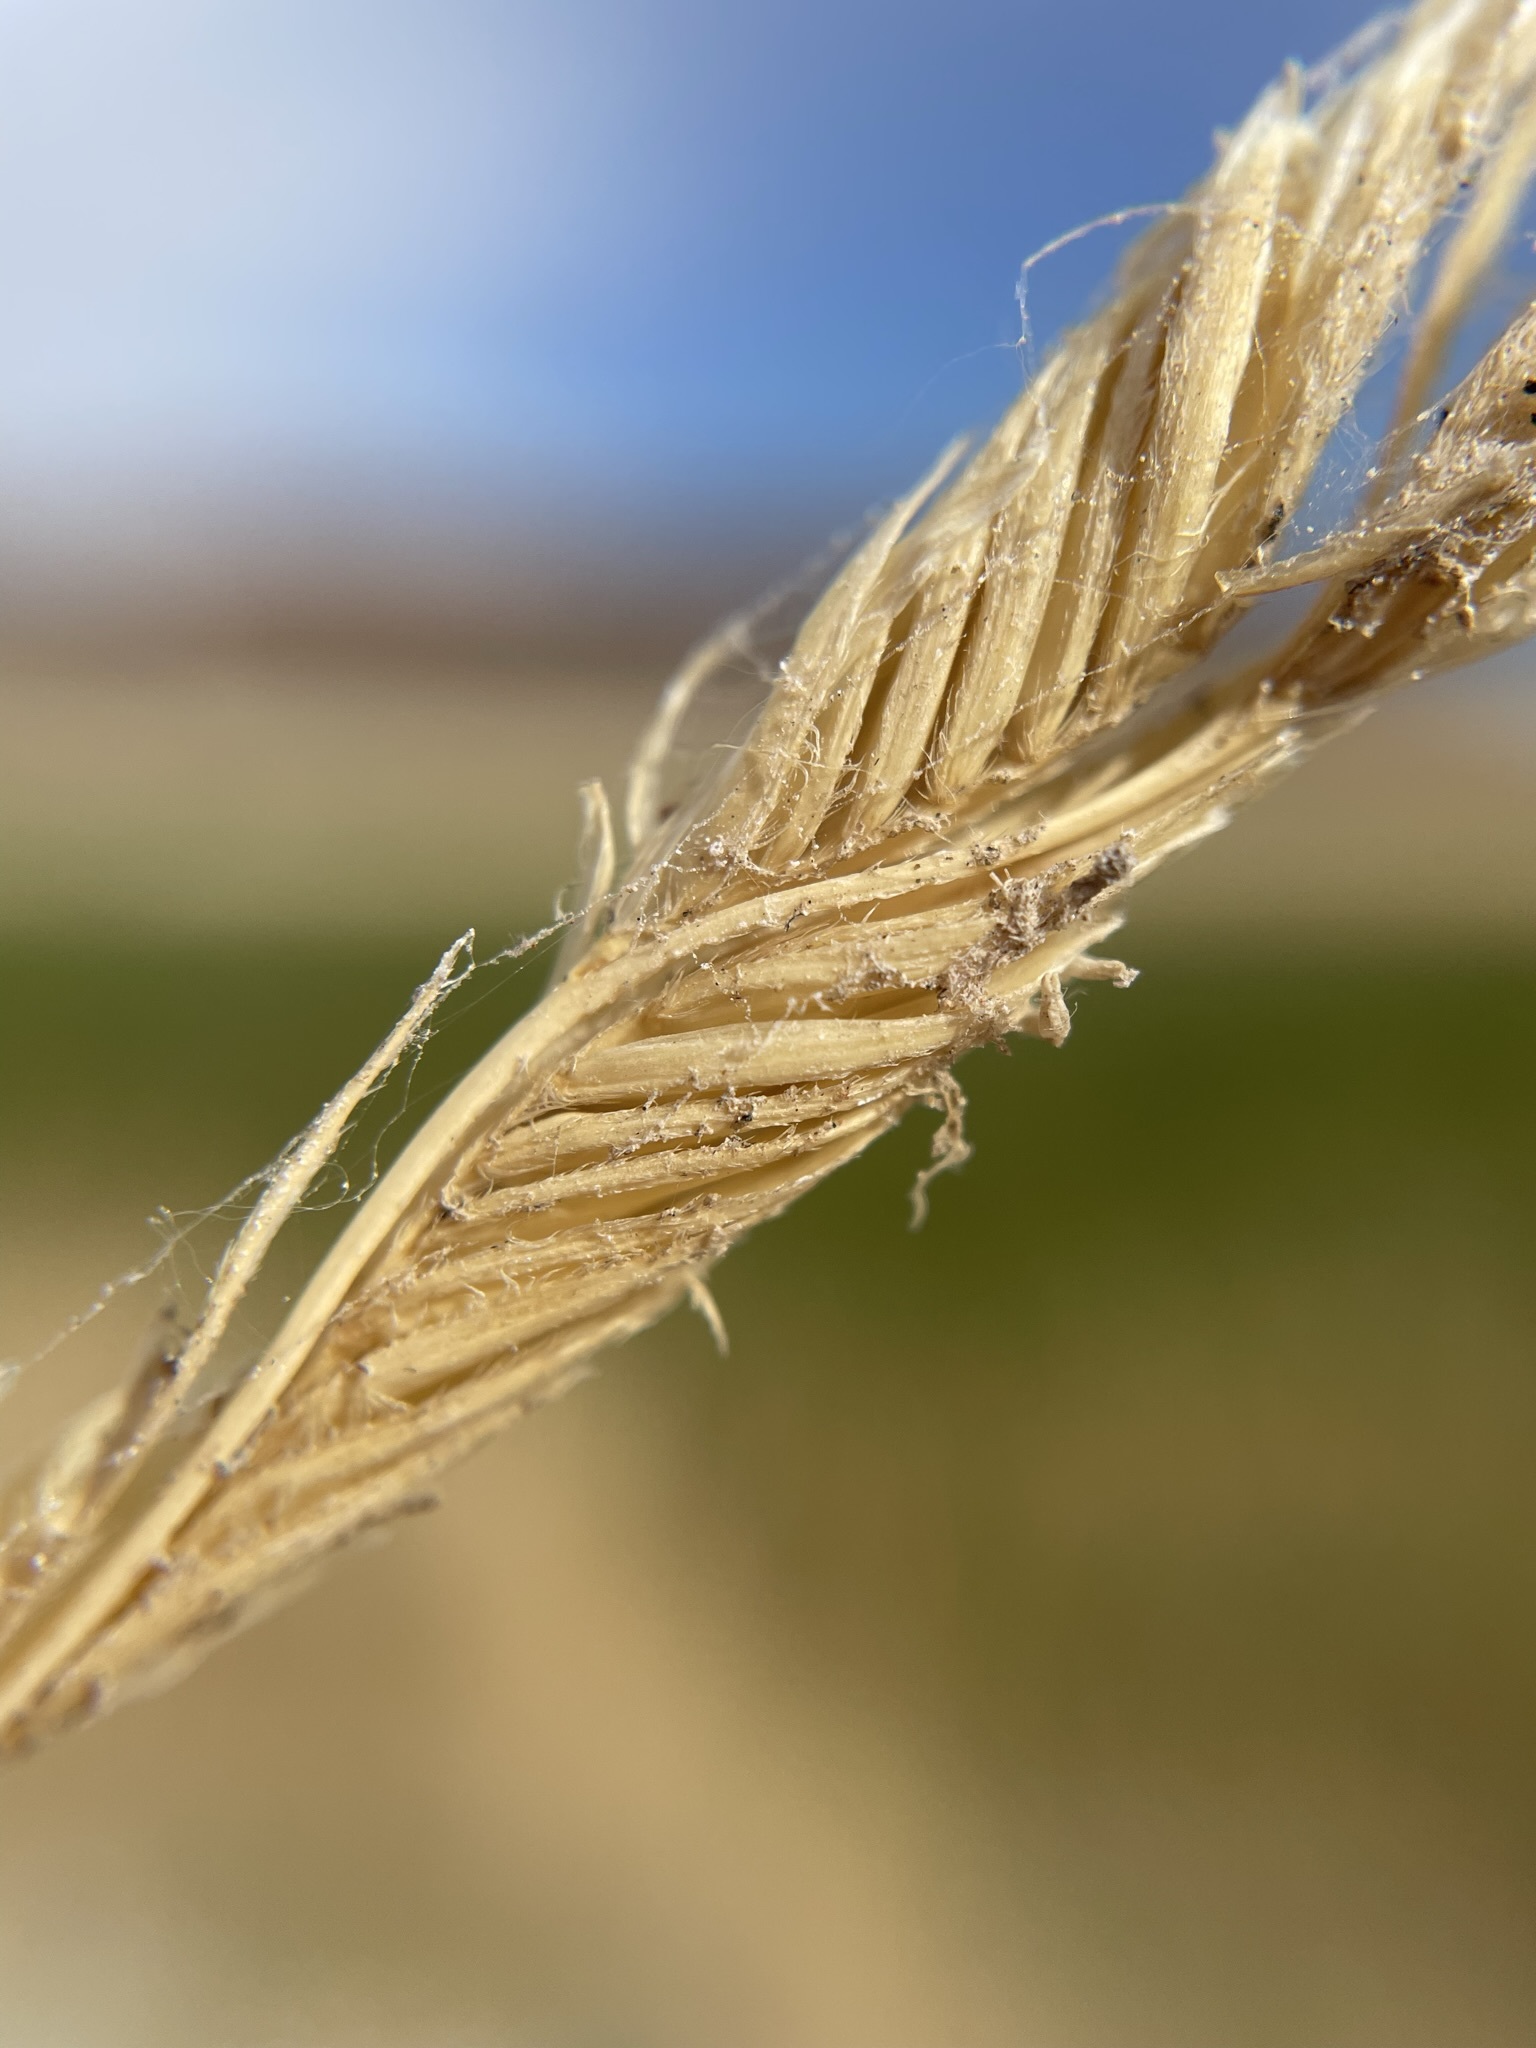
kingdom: Plantae
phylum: Tracheophyta
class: Liliopsida
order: Poales
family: Poaceae
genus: Sporobolus
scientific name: Sporobolus hookerianus
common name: Alkali cordgrass
